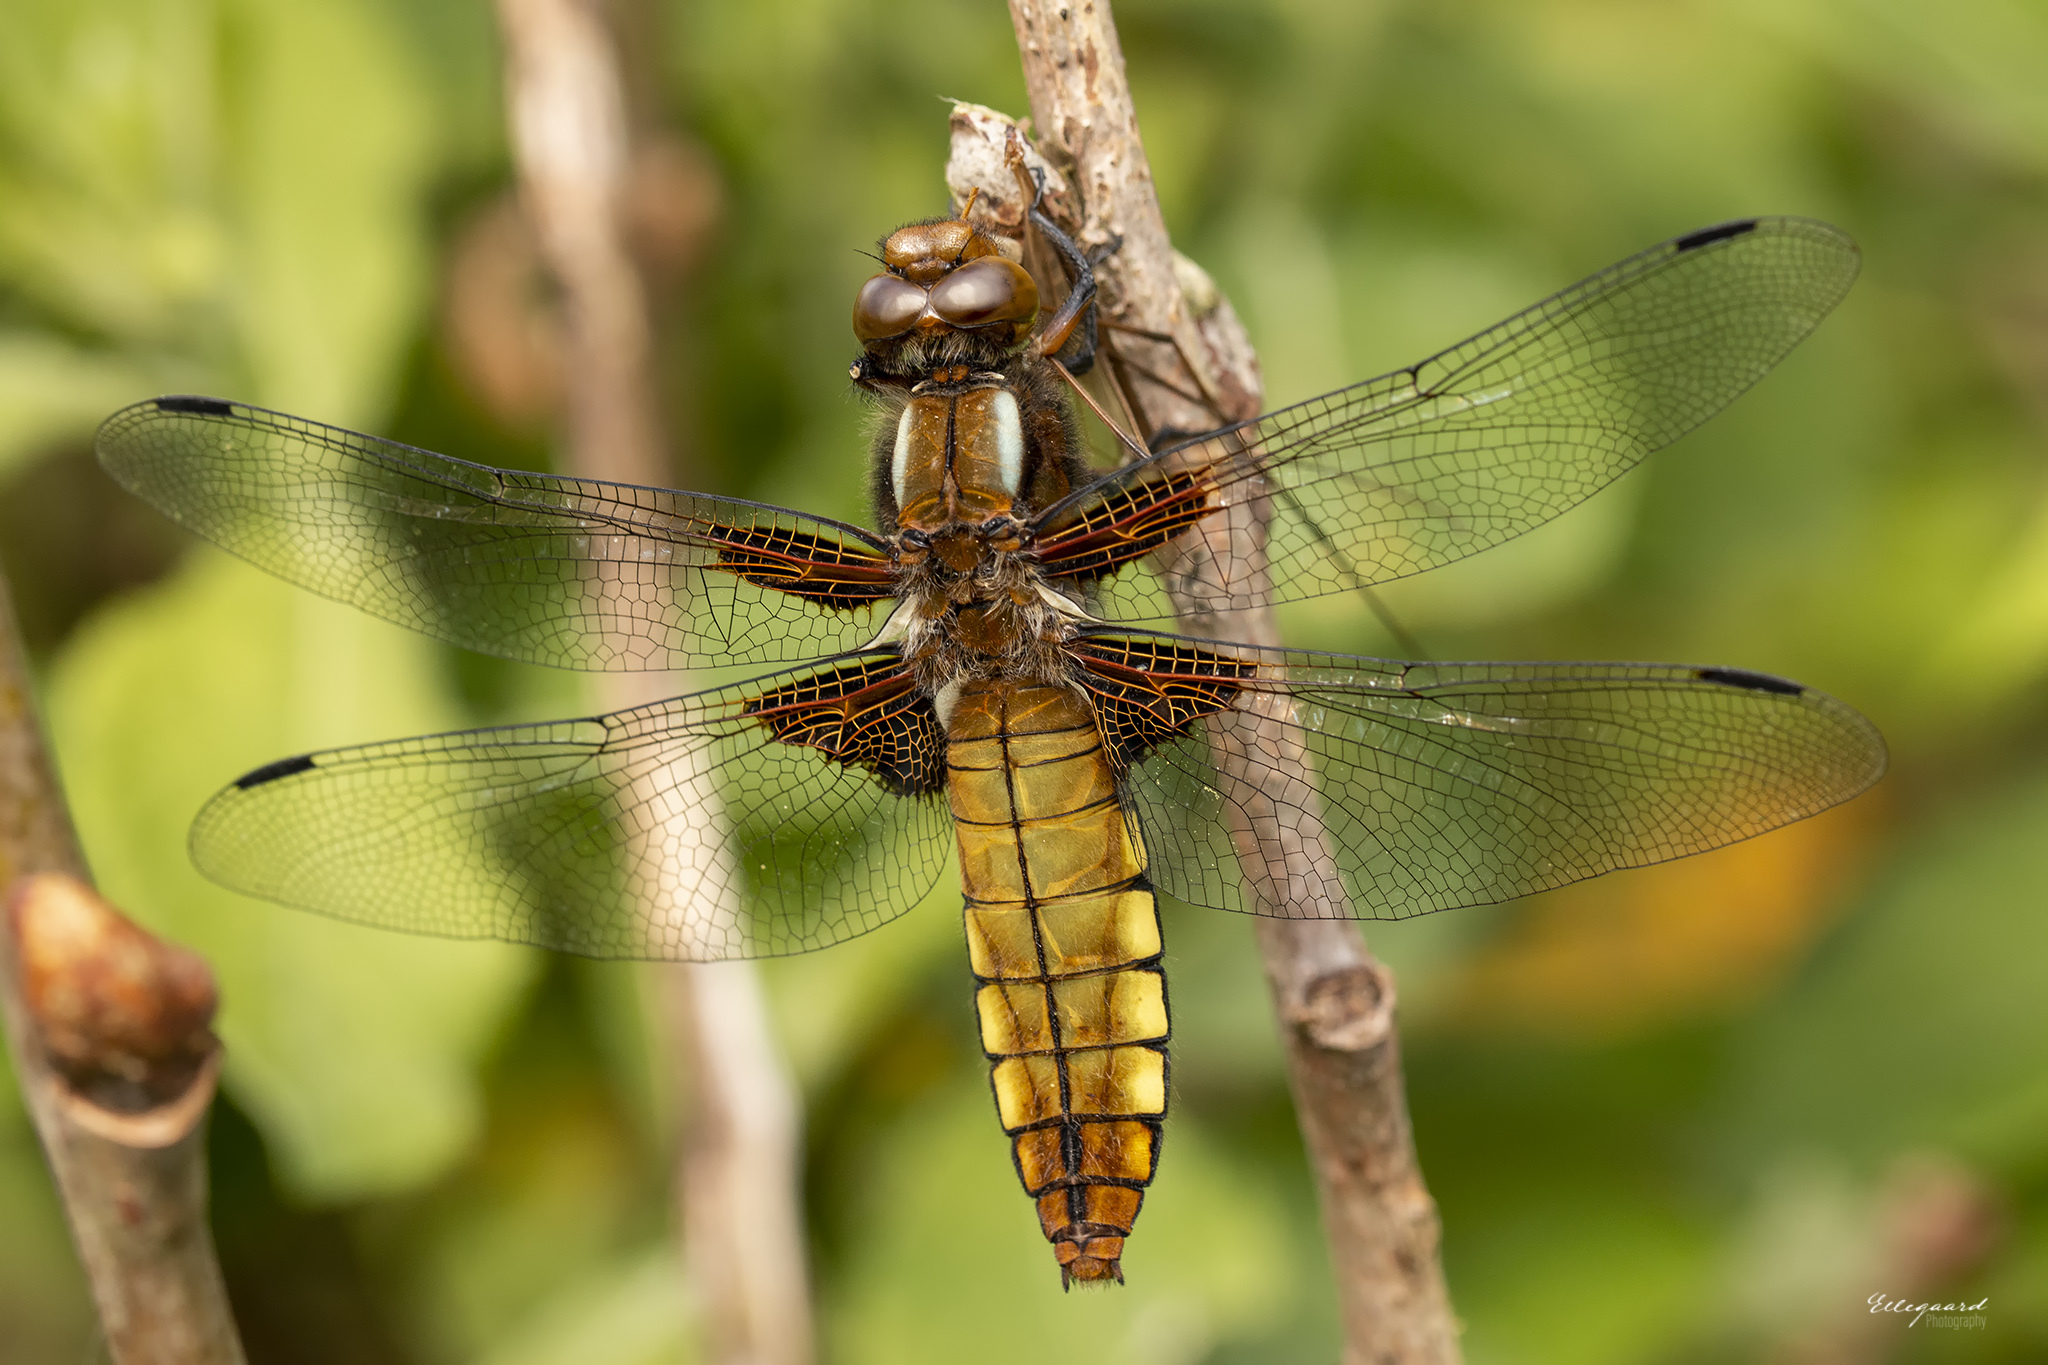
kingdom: Animalia
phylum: Arthropoda
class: Insecta
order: Odonata
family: Libellulidae
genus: Libellula
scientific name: Libellula depressa
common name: Broad-bodied chaser
